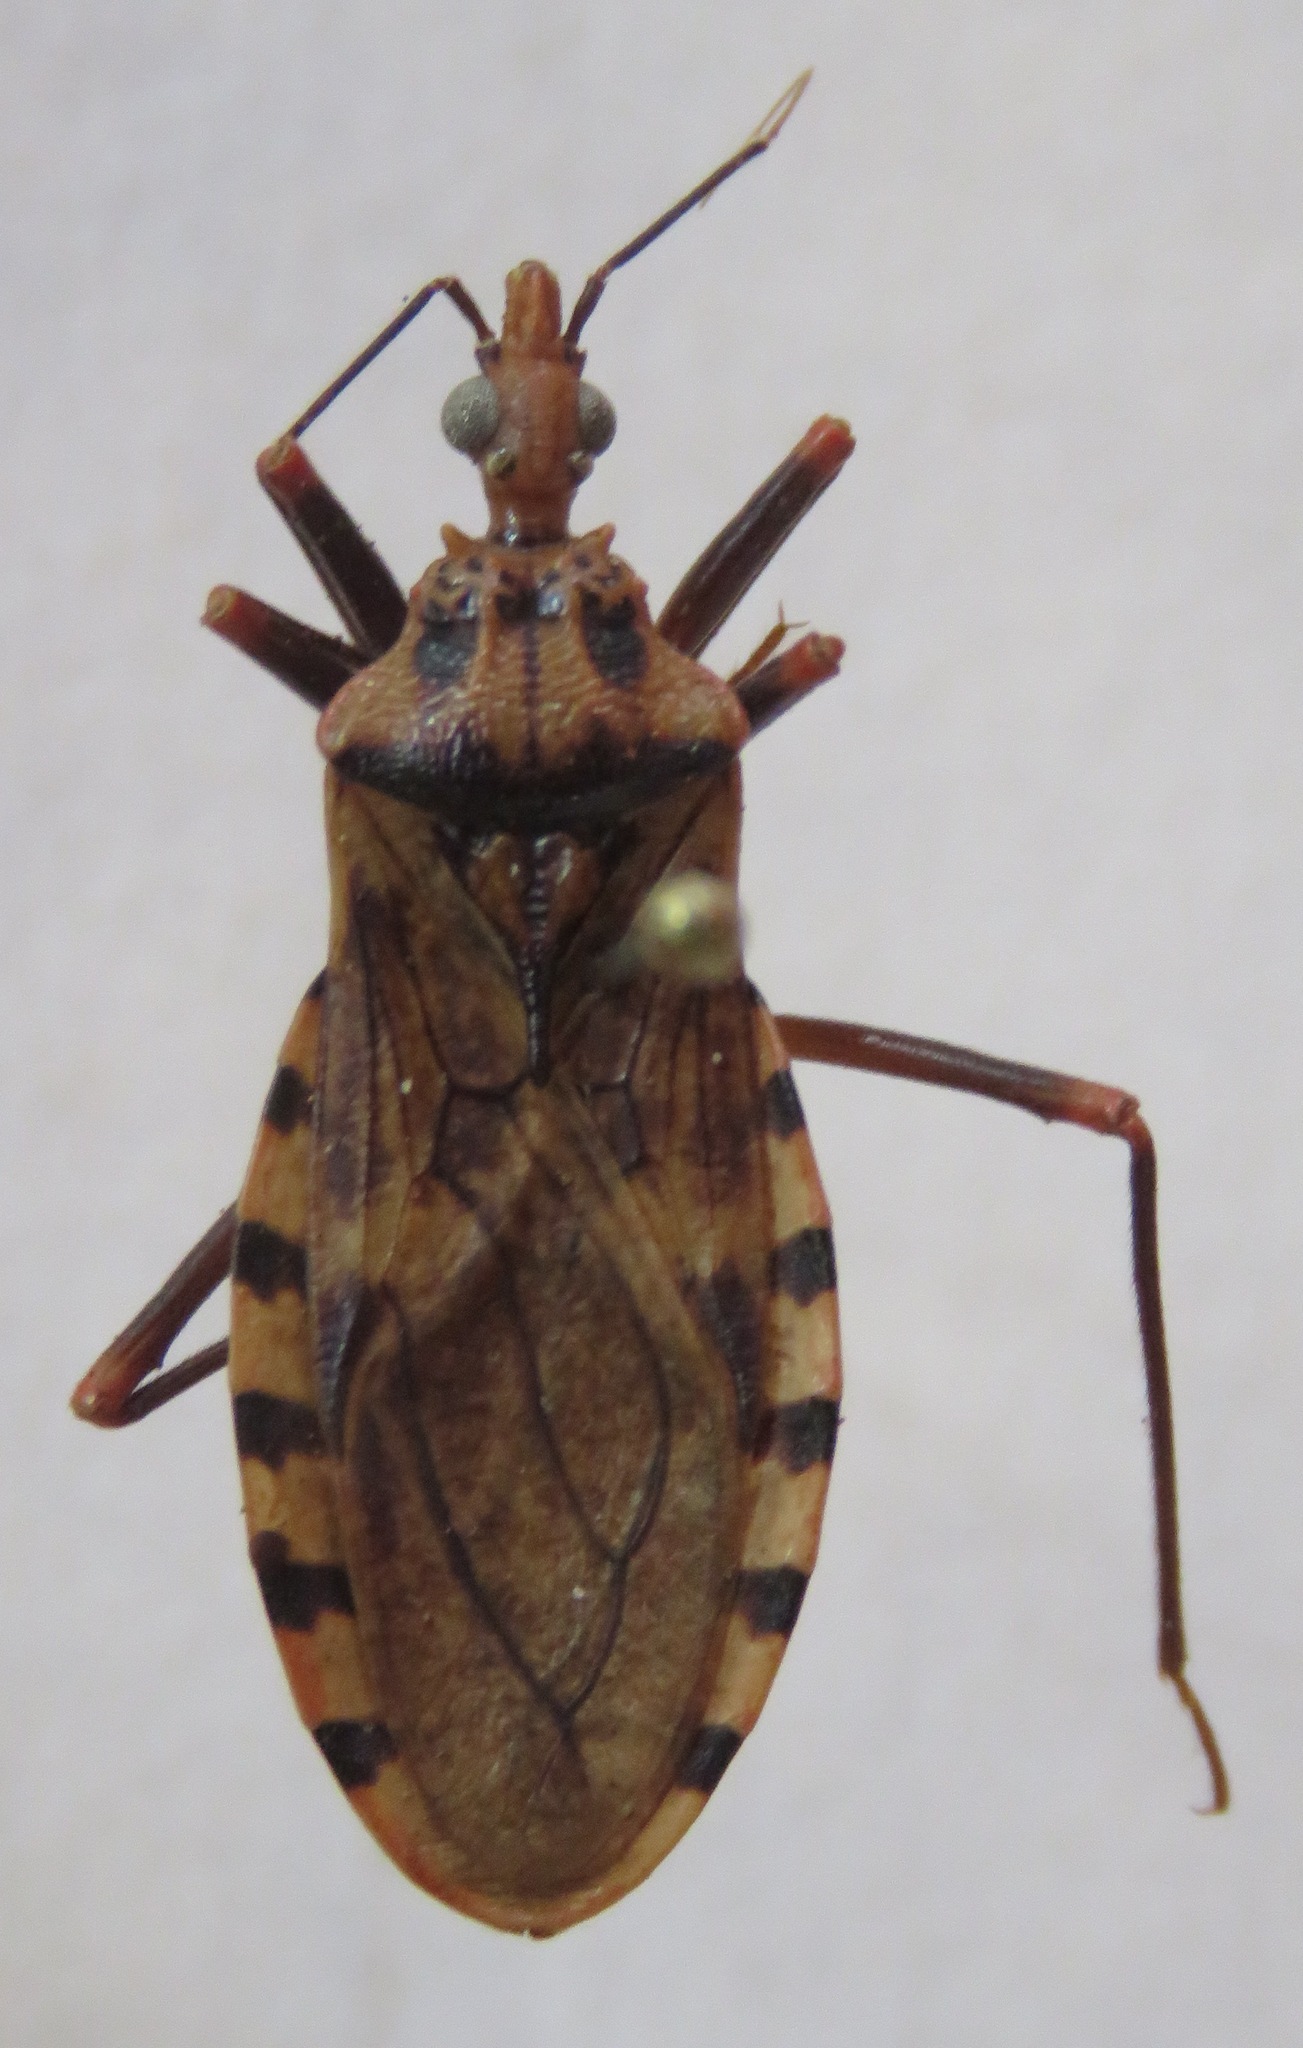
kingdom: Animalia
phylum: Arthropoda
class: Insecta
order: Hemiptera
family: Reduviidae
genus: Panstrongylus
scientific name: Panstrongylus geniculatus
